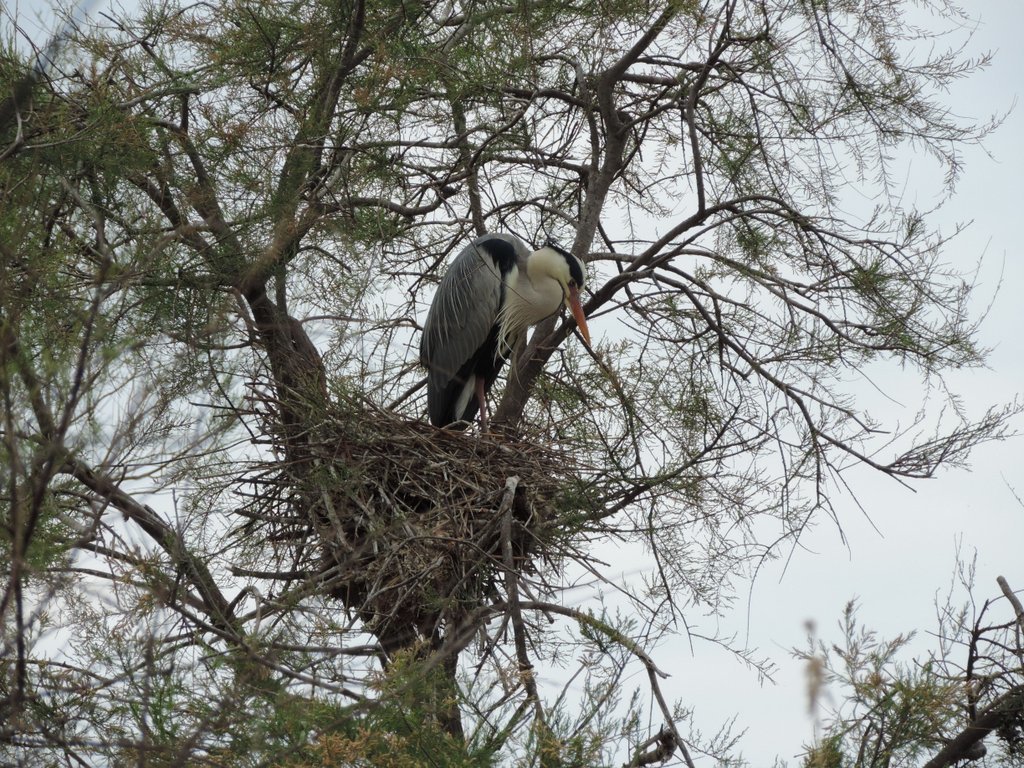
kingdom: Animalia
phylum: Chordata
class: Aves
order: Pelecaniformes
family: Ardeidae
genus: Ardea
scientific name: Ardea cinerea
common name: Grey heron
